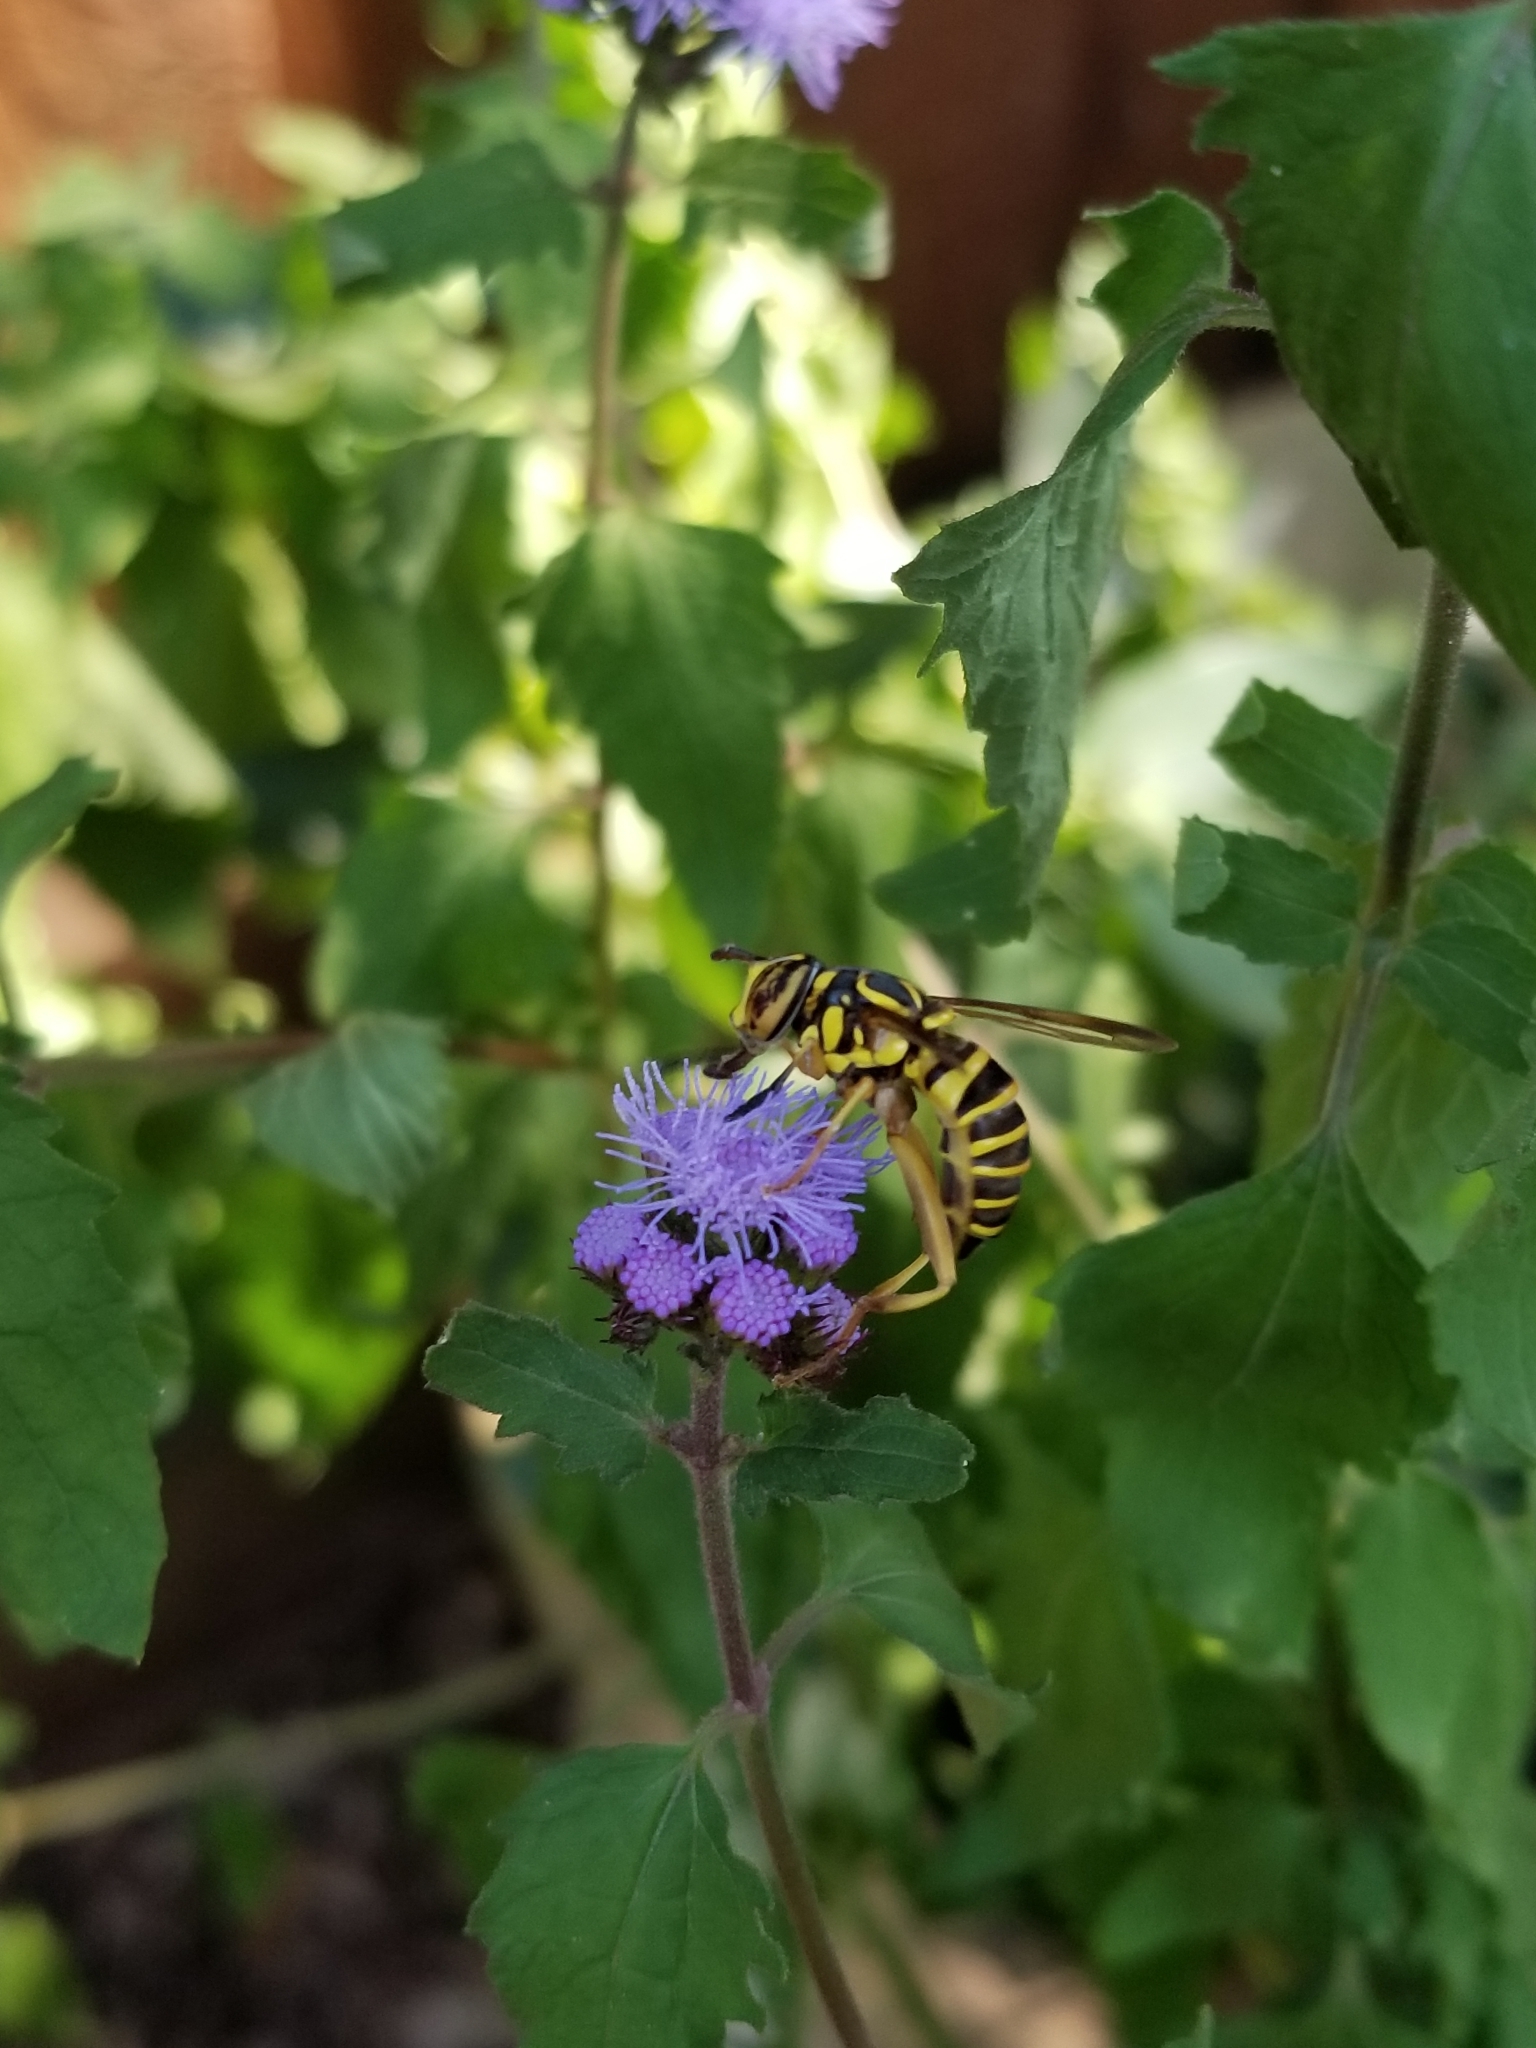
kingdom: Animalia
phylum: Arthropoda
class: Insecta
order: Diptera
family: Syrphidae
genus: Spilomyia
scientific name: Spilomyia longicornis
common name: Eastern hornet fly
